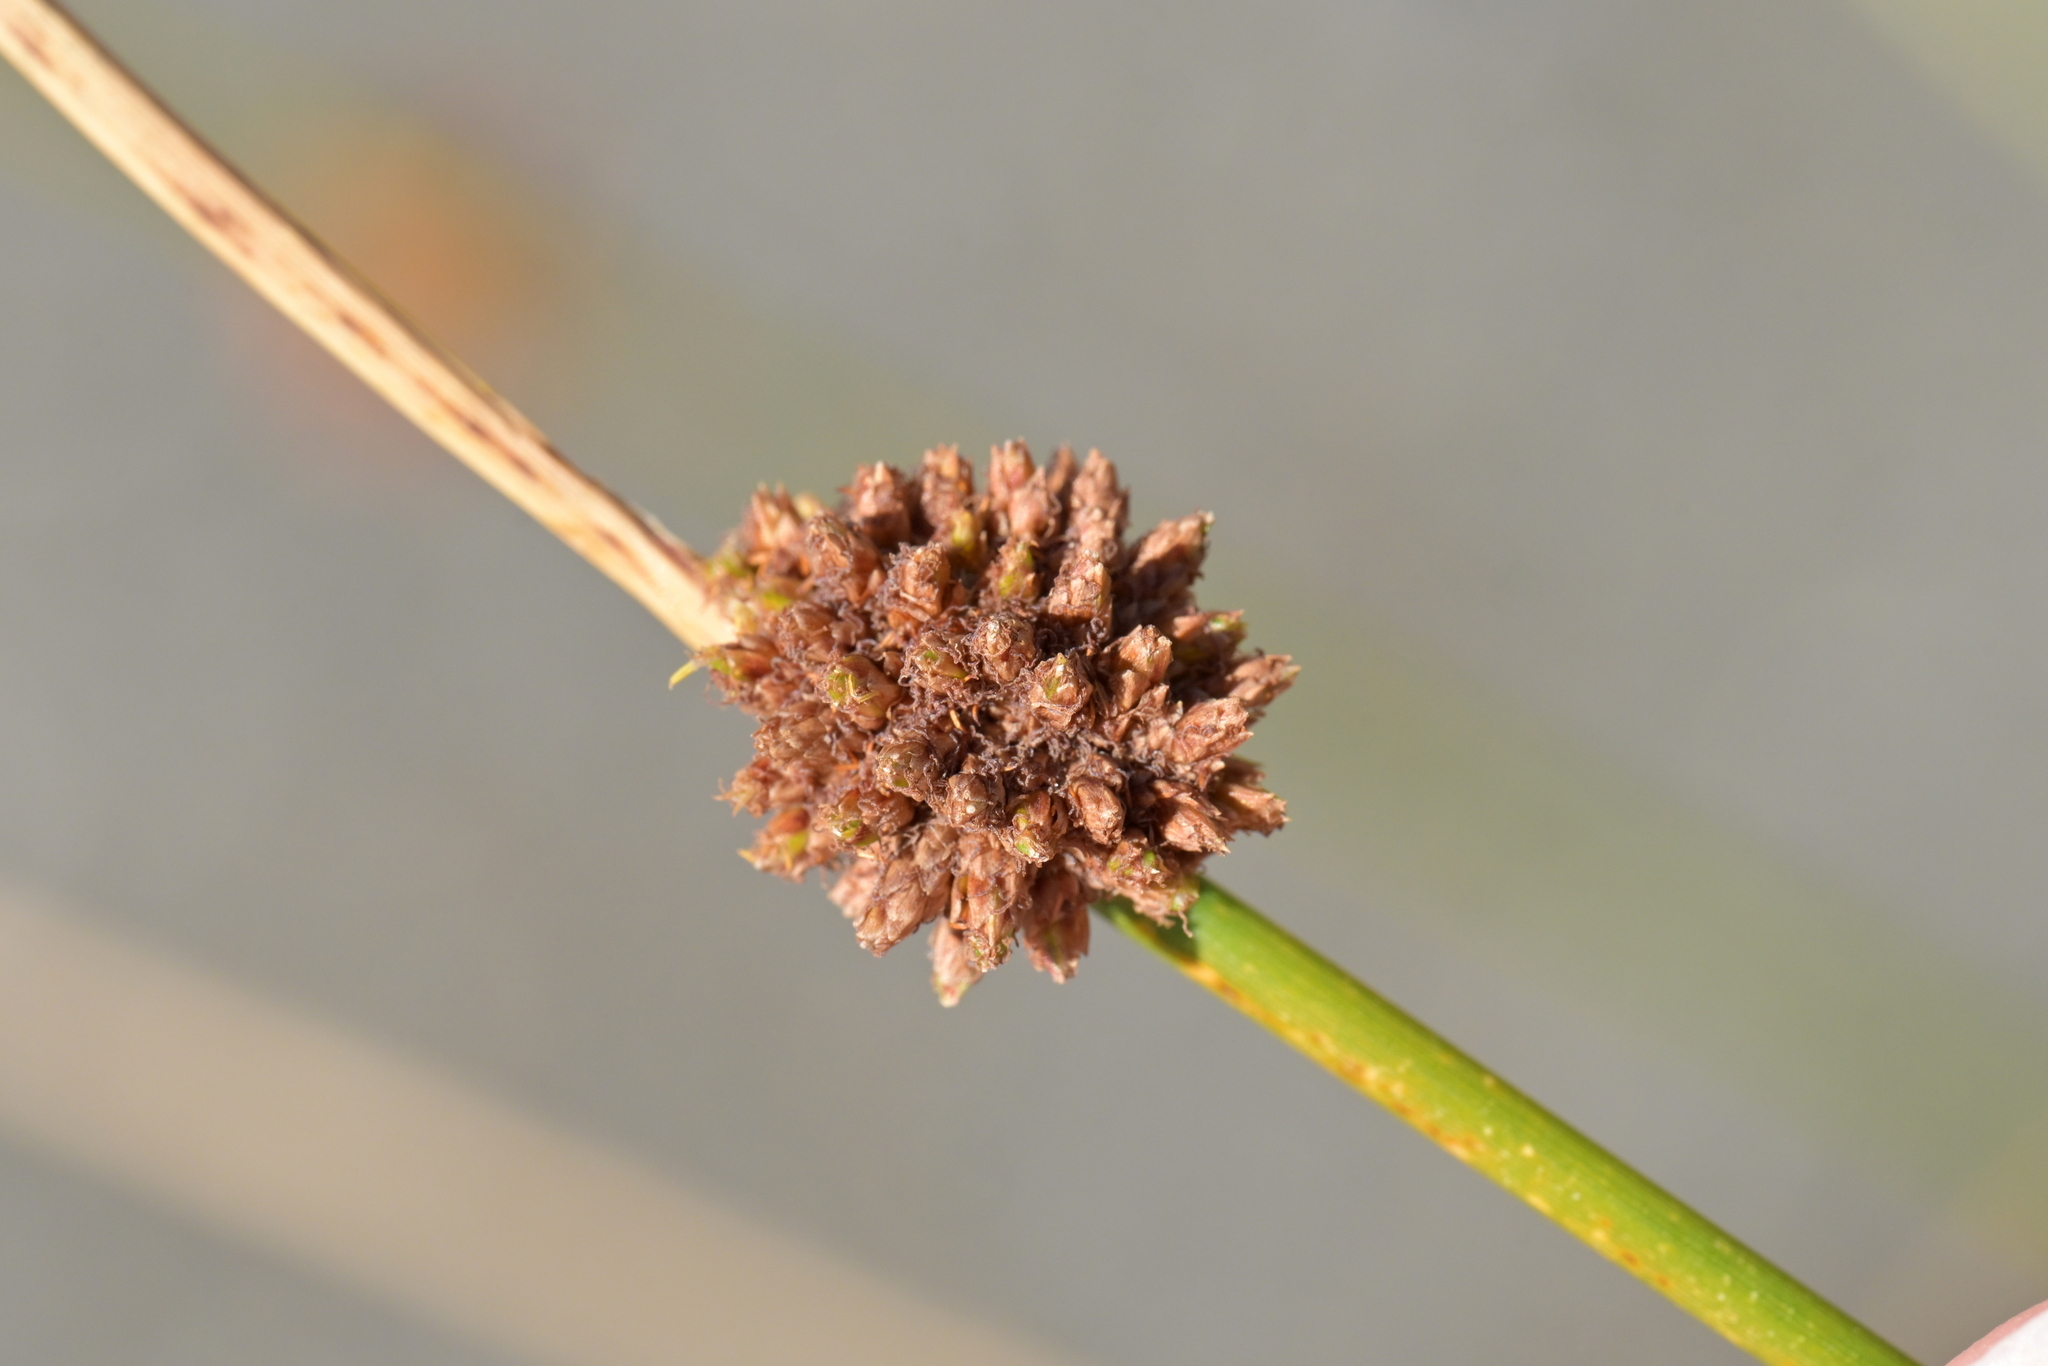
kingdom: Plantae
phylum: Tracheophyta
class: Liliopsida
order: Poales
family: Cyperaceae
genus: Ficinia
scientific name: Ficinia nodosa
